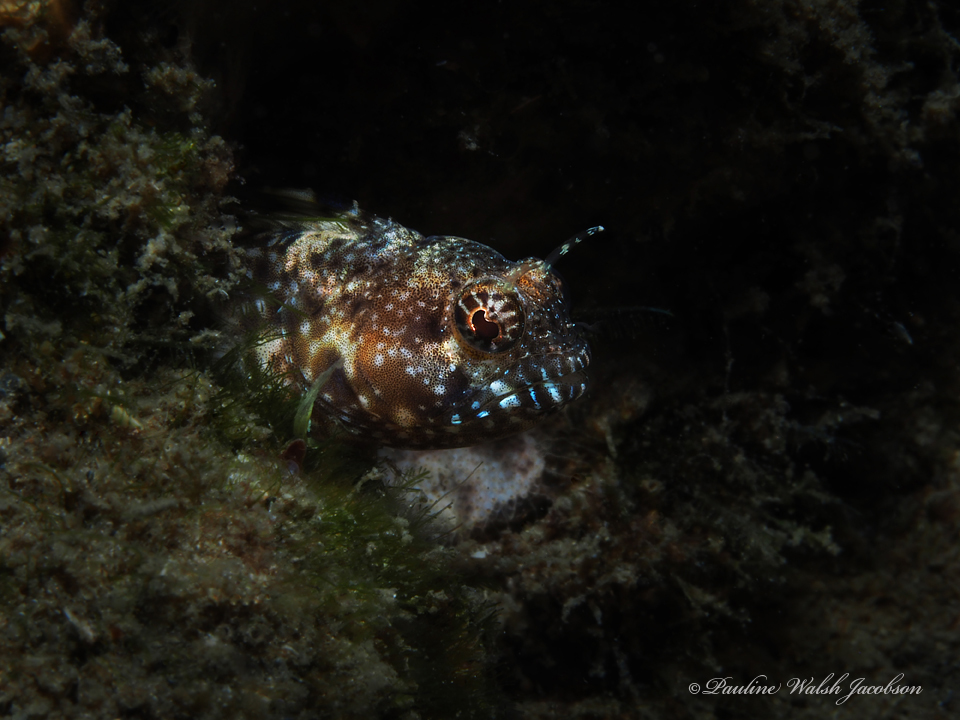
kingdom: Animalia
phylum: Chordata
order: Perciformes
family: Chaenopsidae
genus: Emblemaria
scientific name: Emblemaria pandionis
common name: Sailfin blenny
